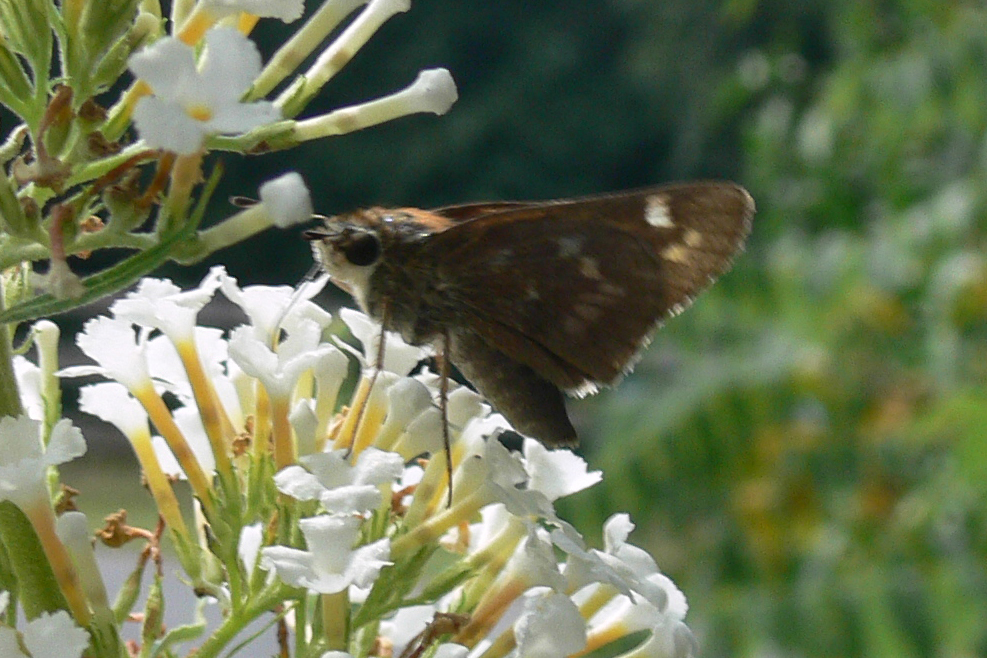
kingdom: Animalia
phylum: Arthropoda
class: Insecta
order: Lepidoptera
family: Hesperiidae
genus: Atalopedes
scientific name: Atalopedes
